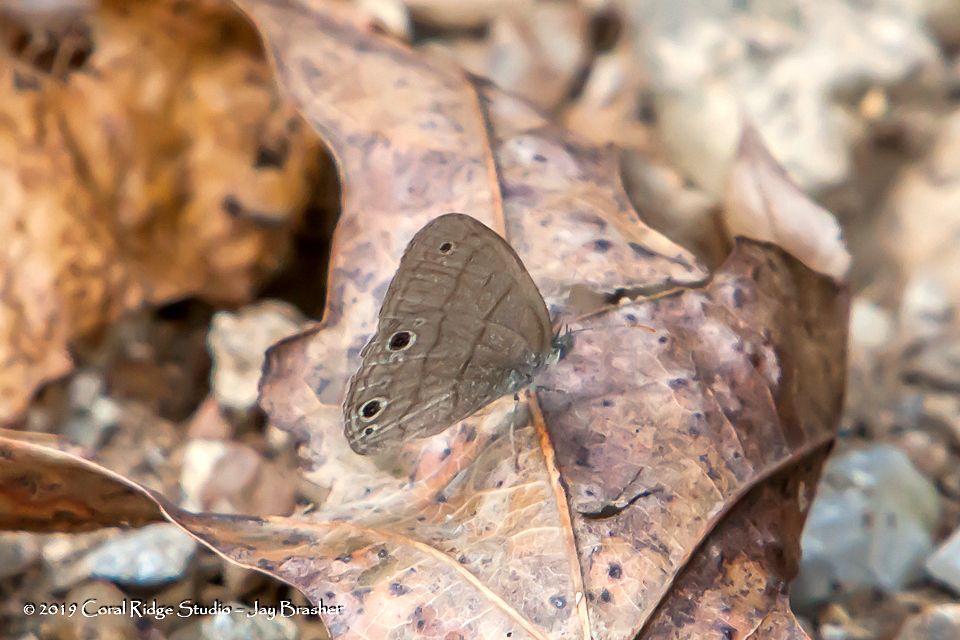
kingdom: Animalia
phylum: Arthropoda
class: Insecta
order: Lepidoptera
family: Nymphalidae
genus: Hermeuptychia
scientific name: Hermeuptychia hermes
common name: Hermes satyr
